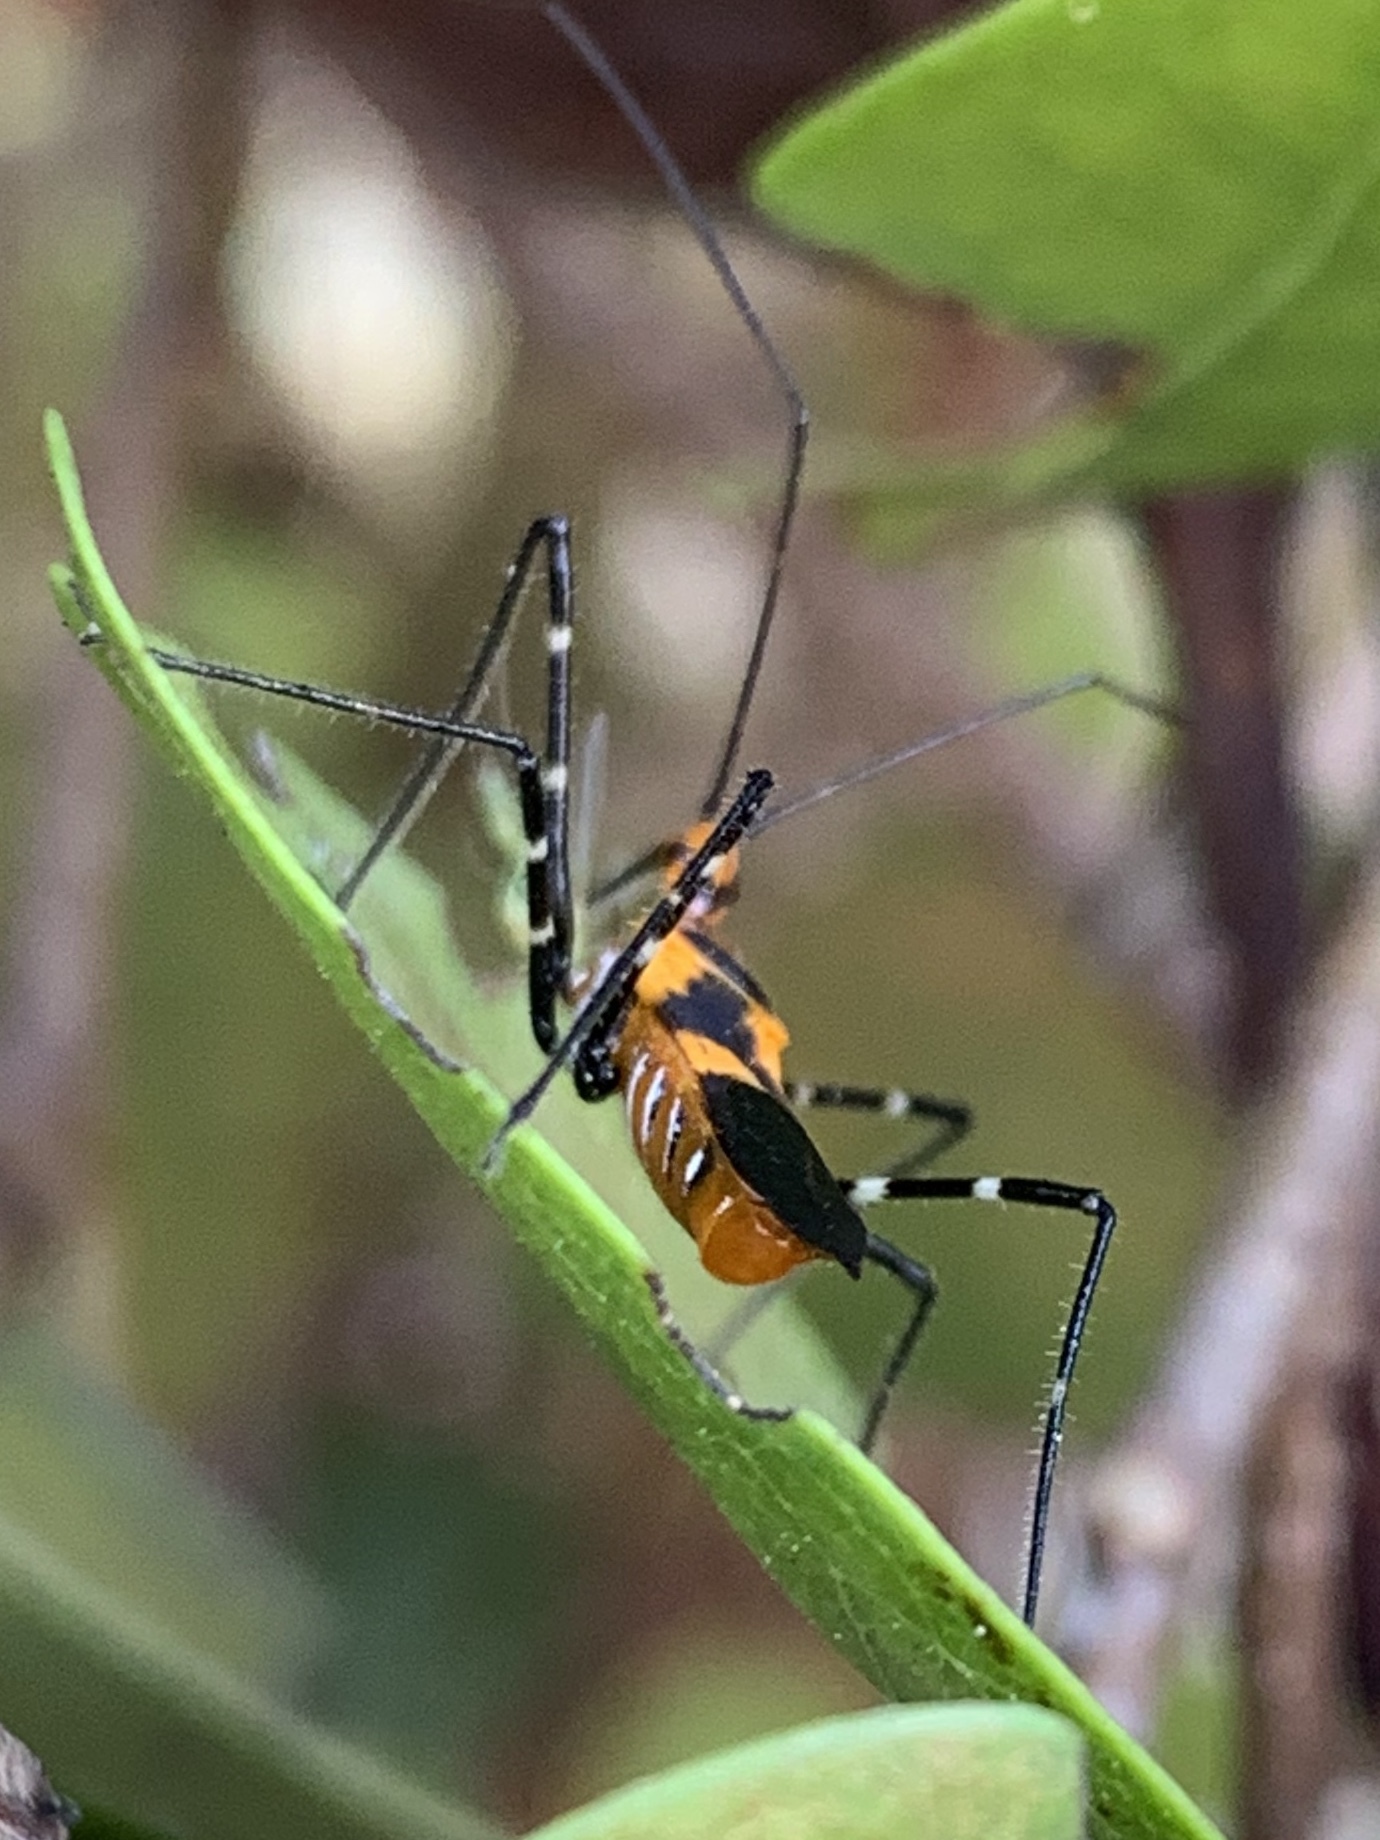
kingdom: Animalia
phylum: Arthropoda
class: Insecta
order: Hemiptera
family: Reduviidae
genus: Zelus
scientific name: Zelus longipes
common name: Milkweed assassin bug
